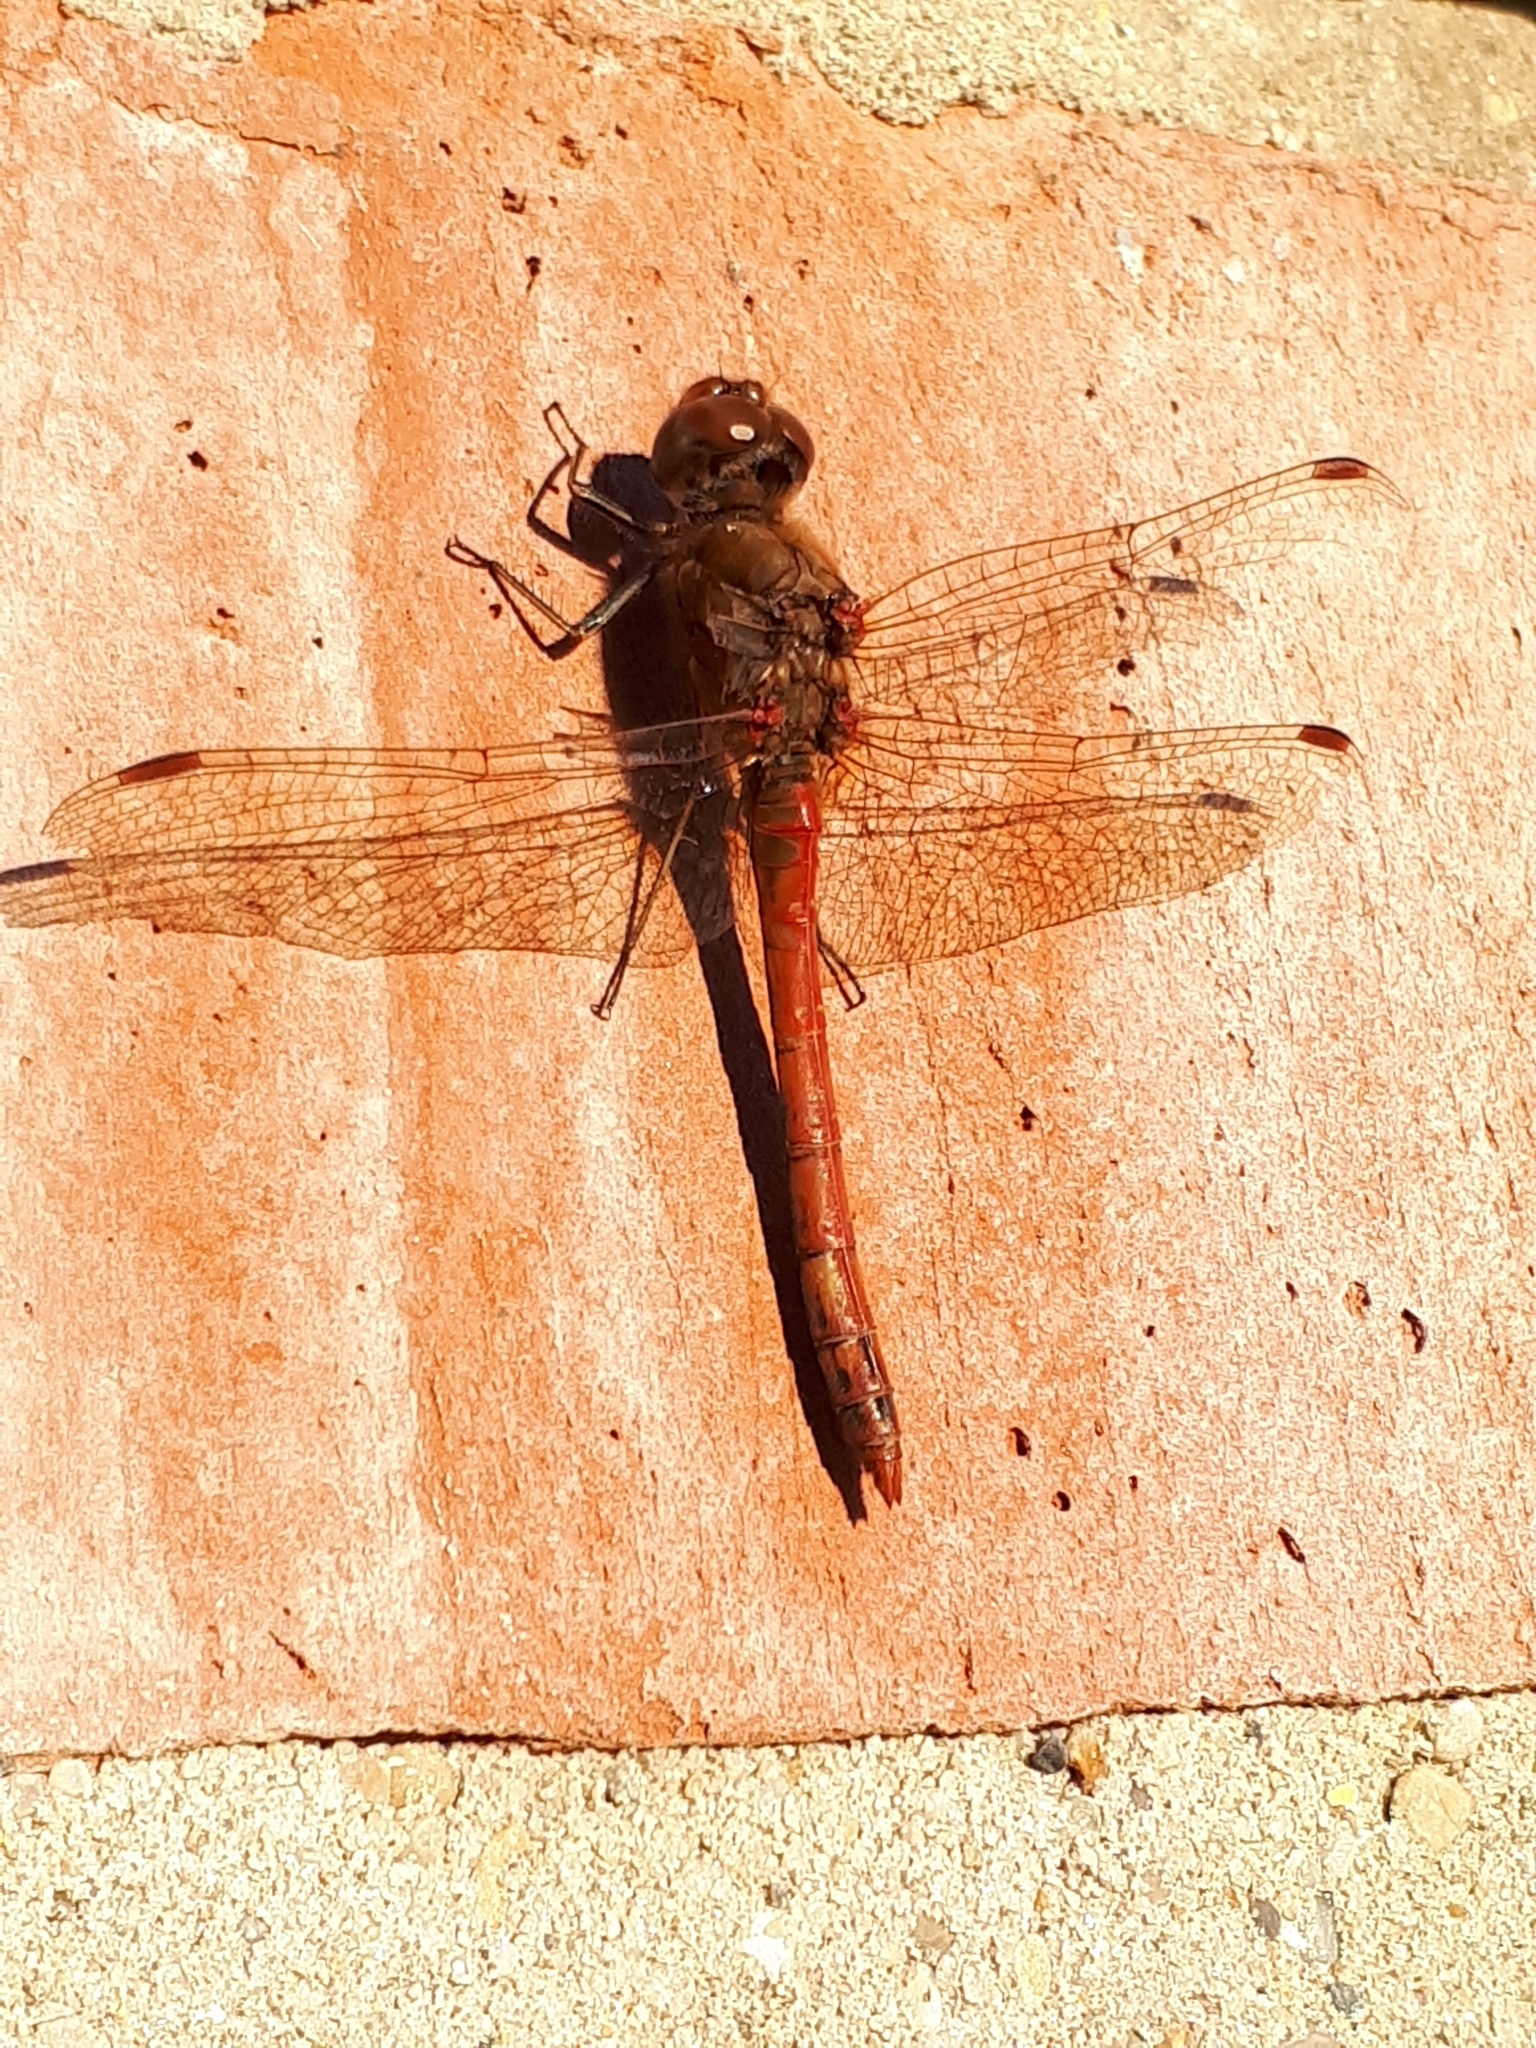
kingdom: Animalia
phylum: Arthropoda
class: Insecta
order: Odonata
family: Libellulidae
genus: Sympetrum
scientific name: Sympetrum striolatum
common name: Common darter
